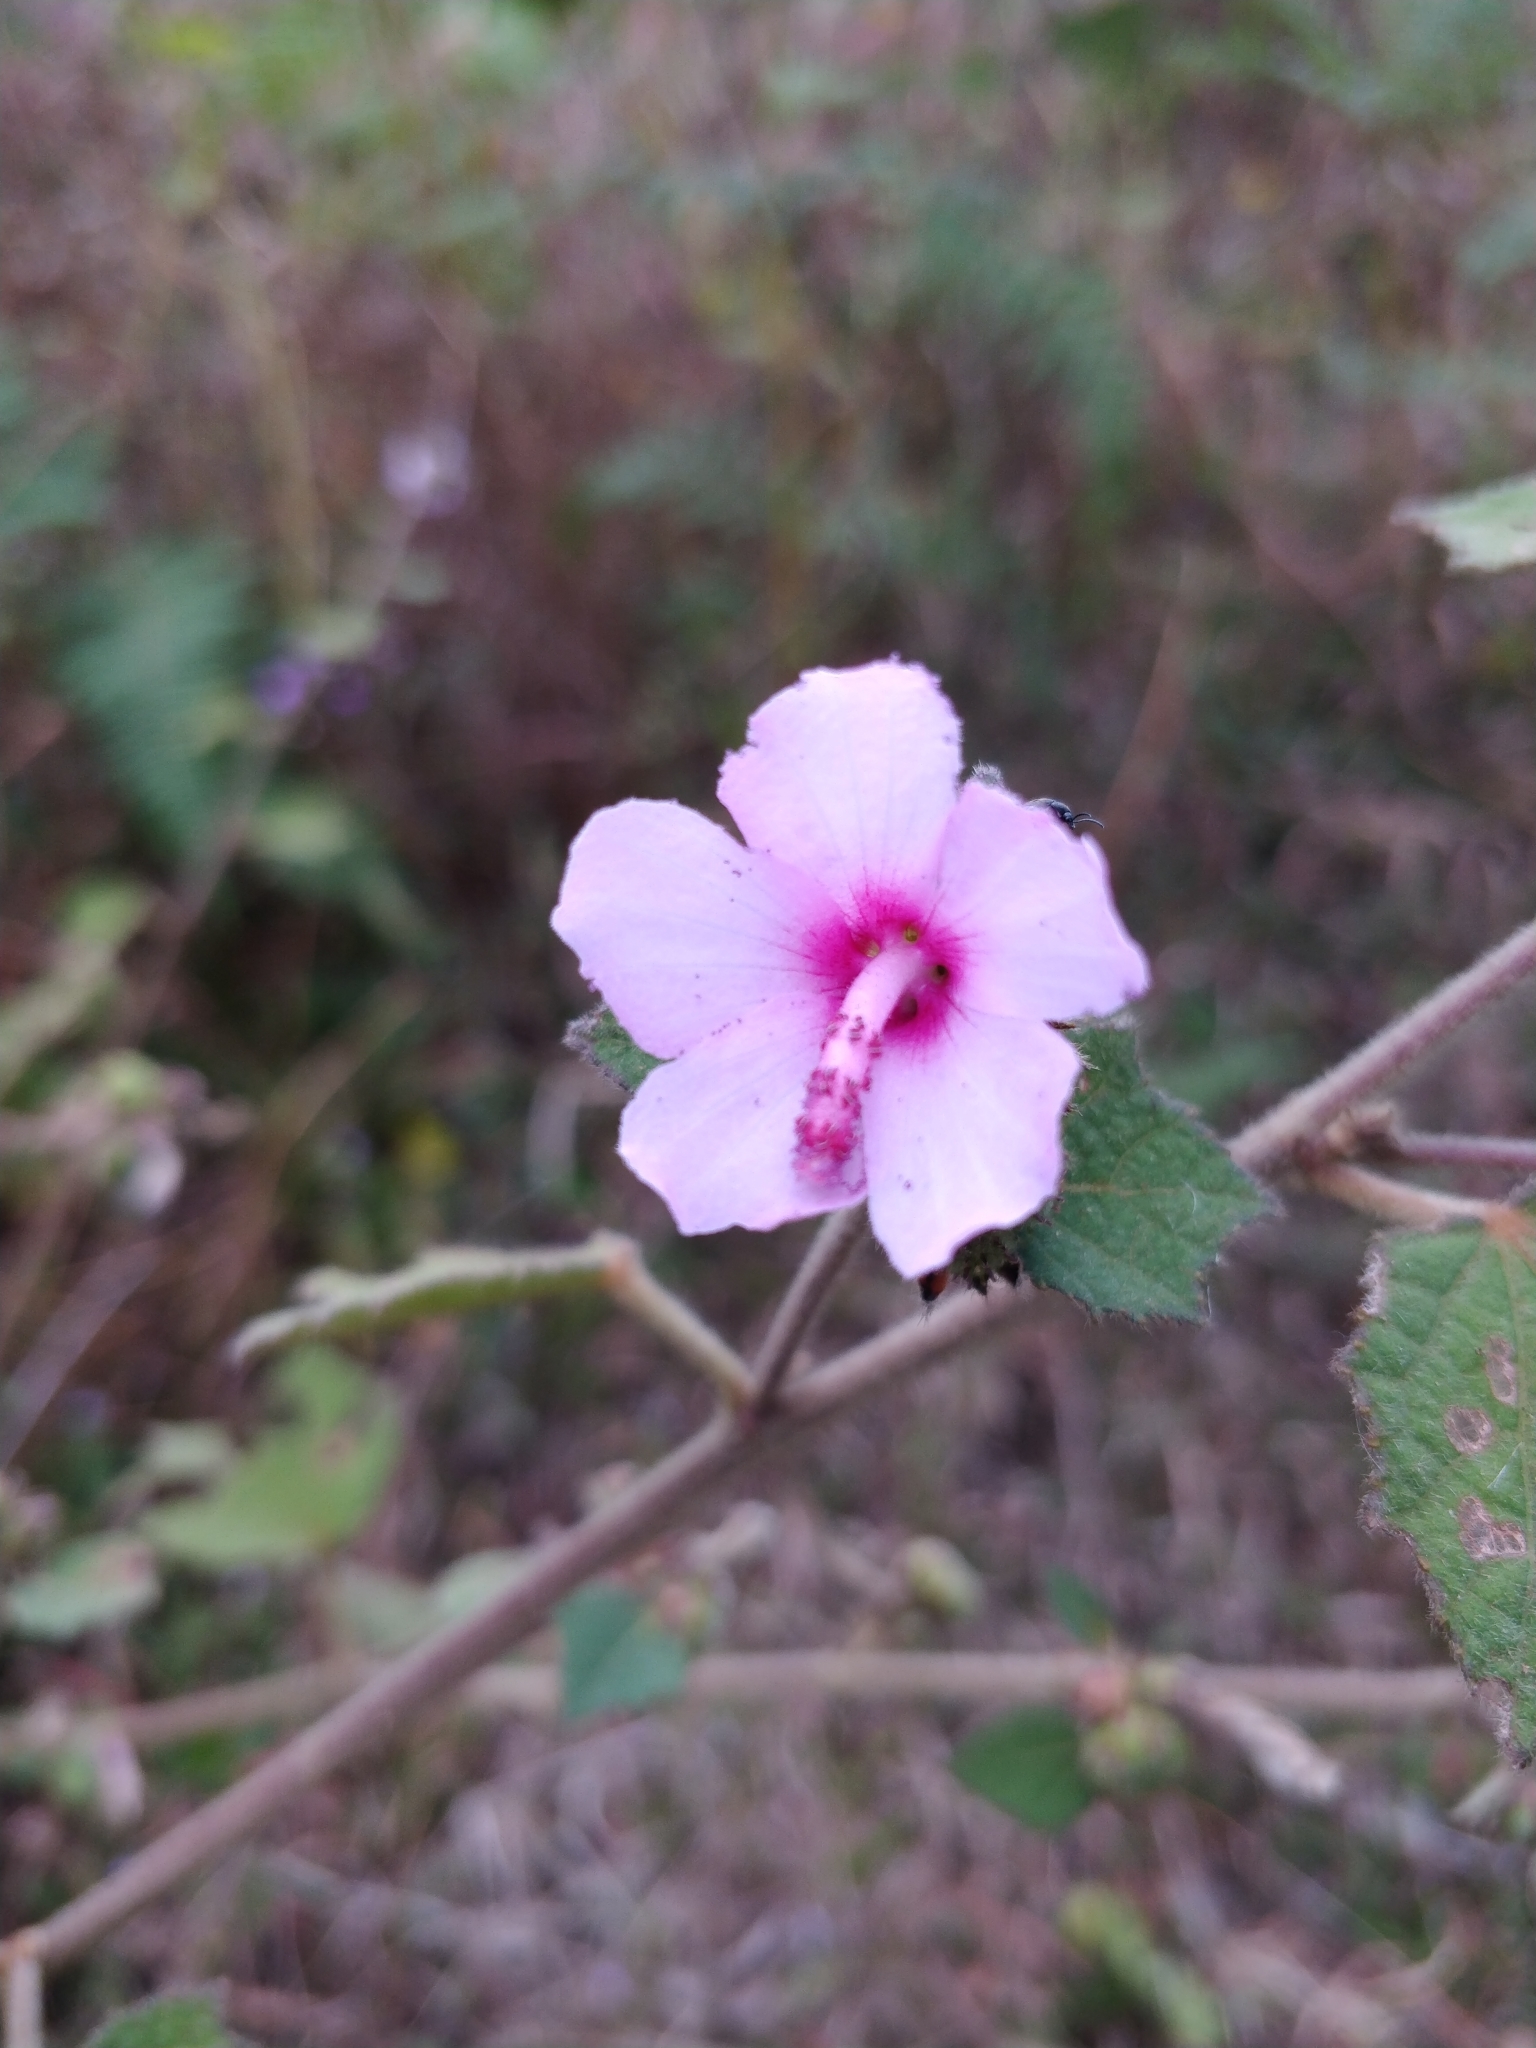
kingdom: Plantae
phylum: Tracheophyta
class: Magnoliopsida
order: Malvales
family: Malvaceae
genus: Urena
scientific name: Urena lobata
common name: Caesarweed
